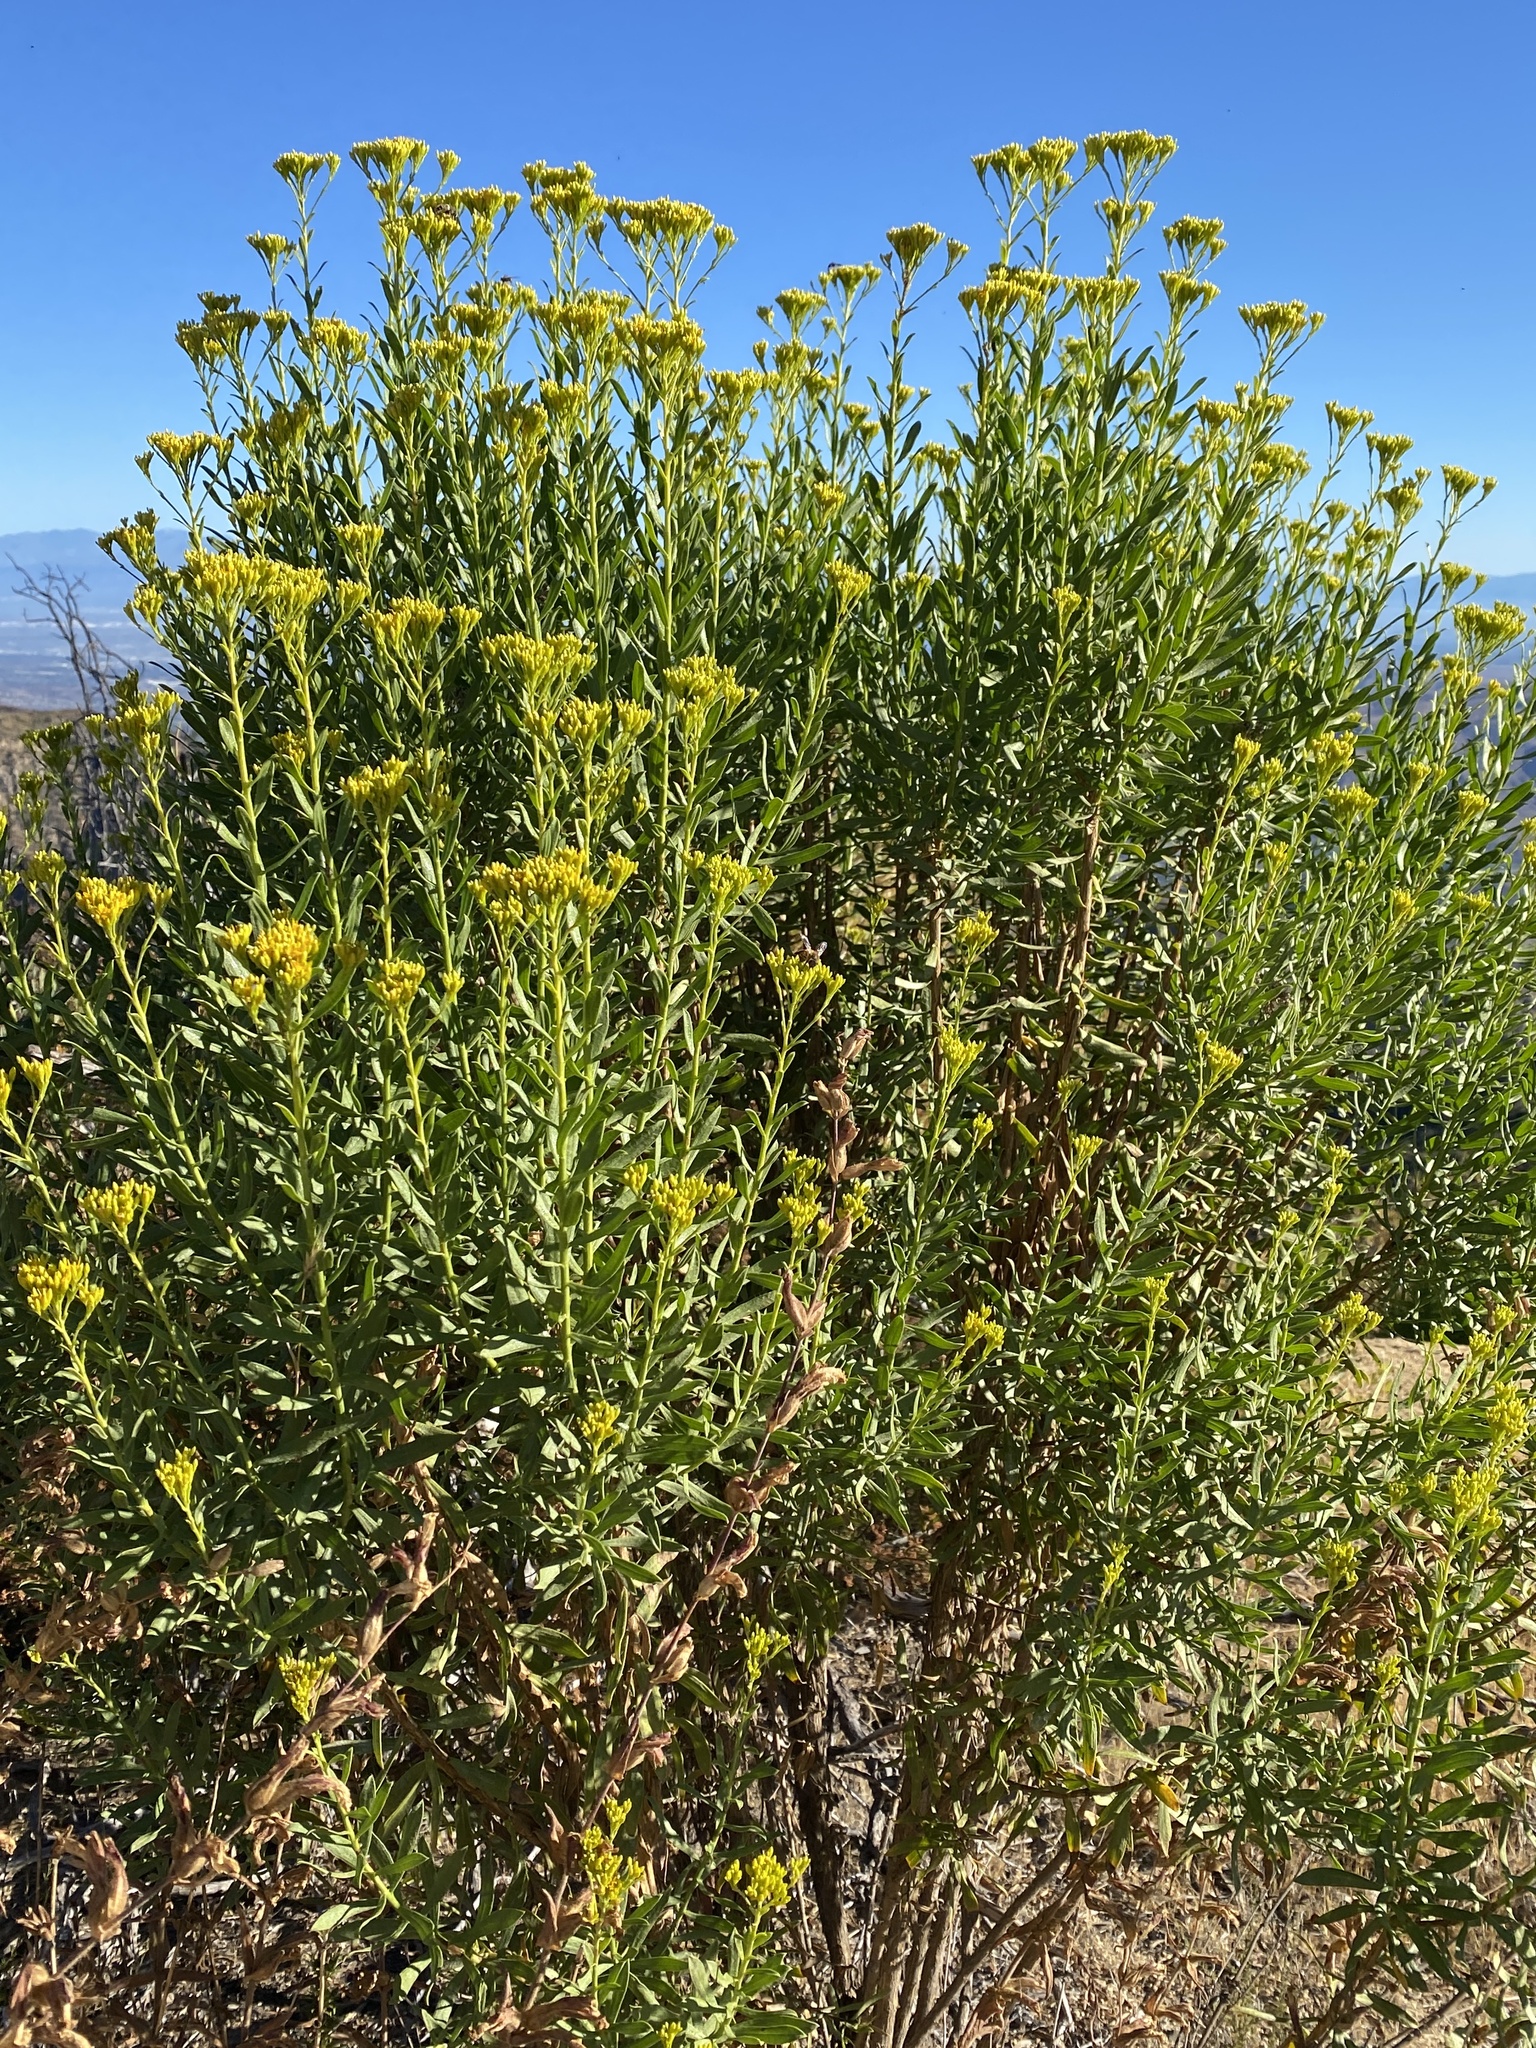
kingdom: Plantae
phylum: Tracheophyta
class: Magnoliopsida
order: Asterales
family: Asteraceae
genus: Ericameria
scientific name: Ericameria parishii
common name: Parish's goldenbush
